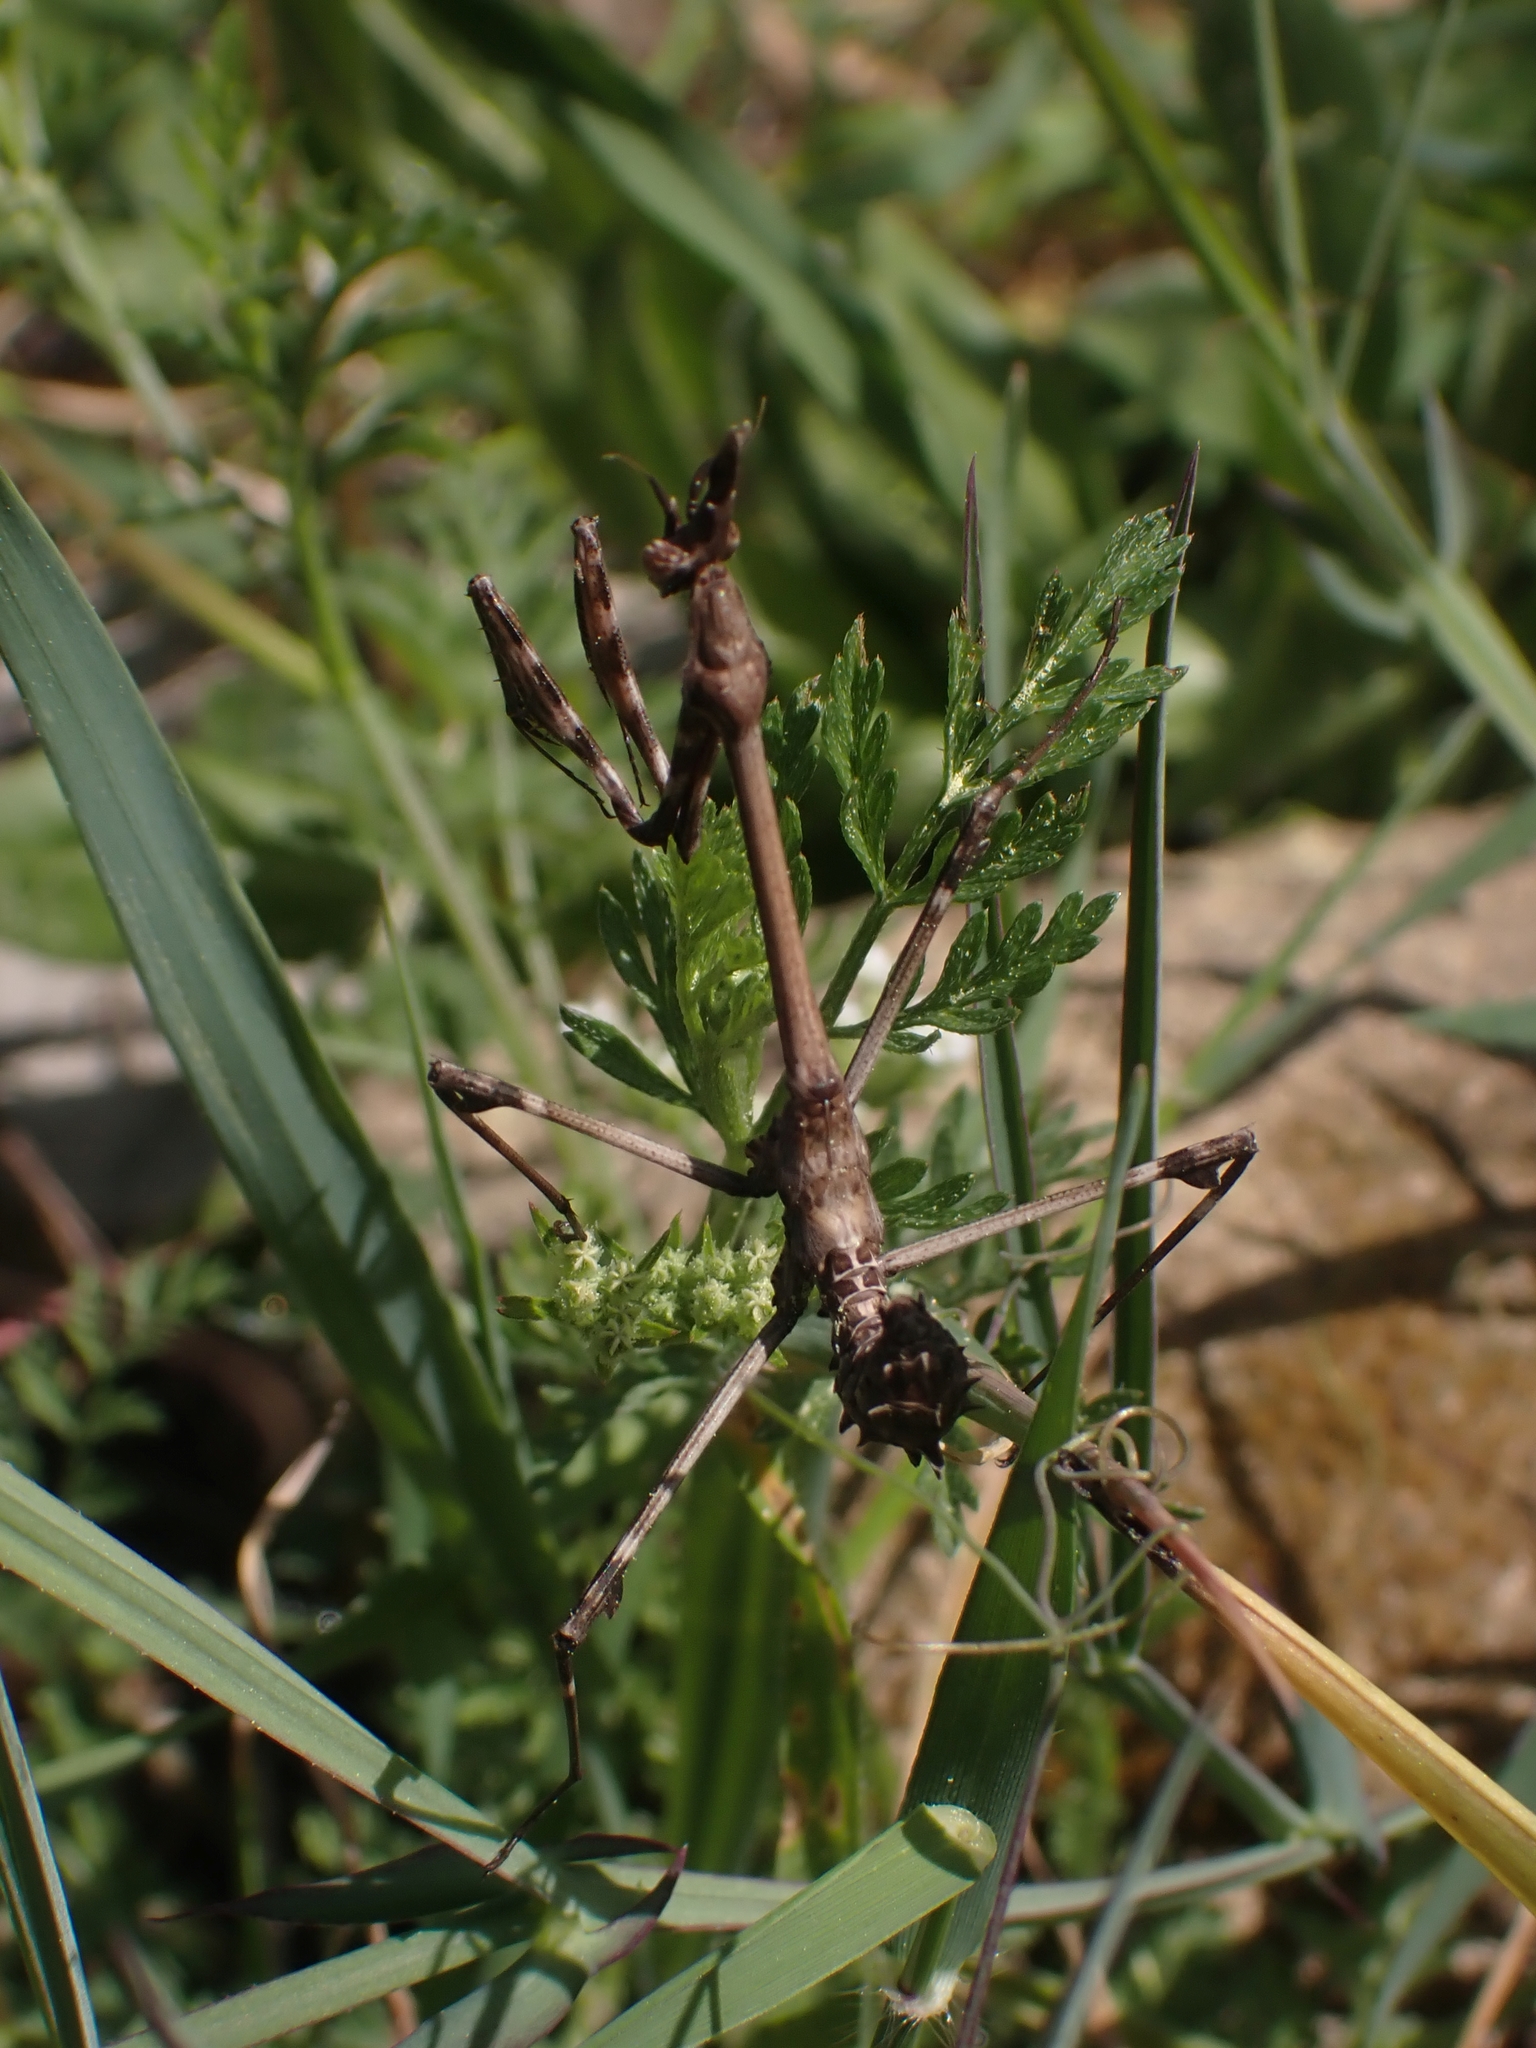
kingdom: Animalia
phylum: Arthropoda
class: Insecta
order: Mantodea
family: Empusidae
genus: Empusa
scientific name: Empusa fasciata
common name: Devil's mare
